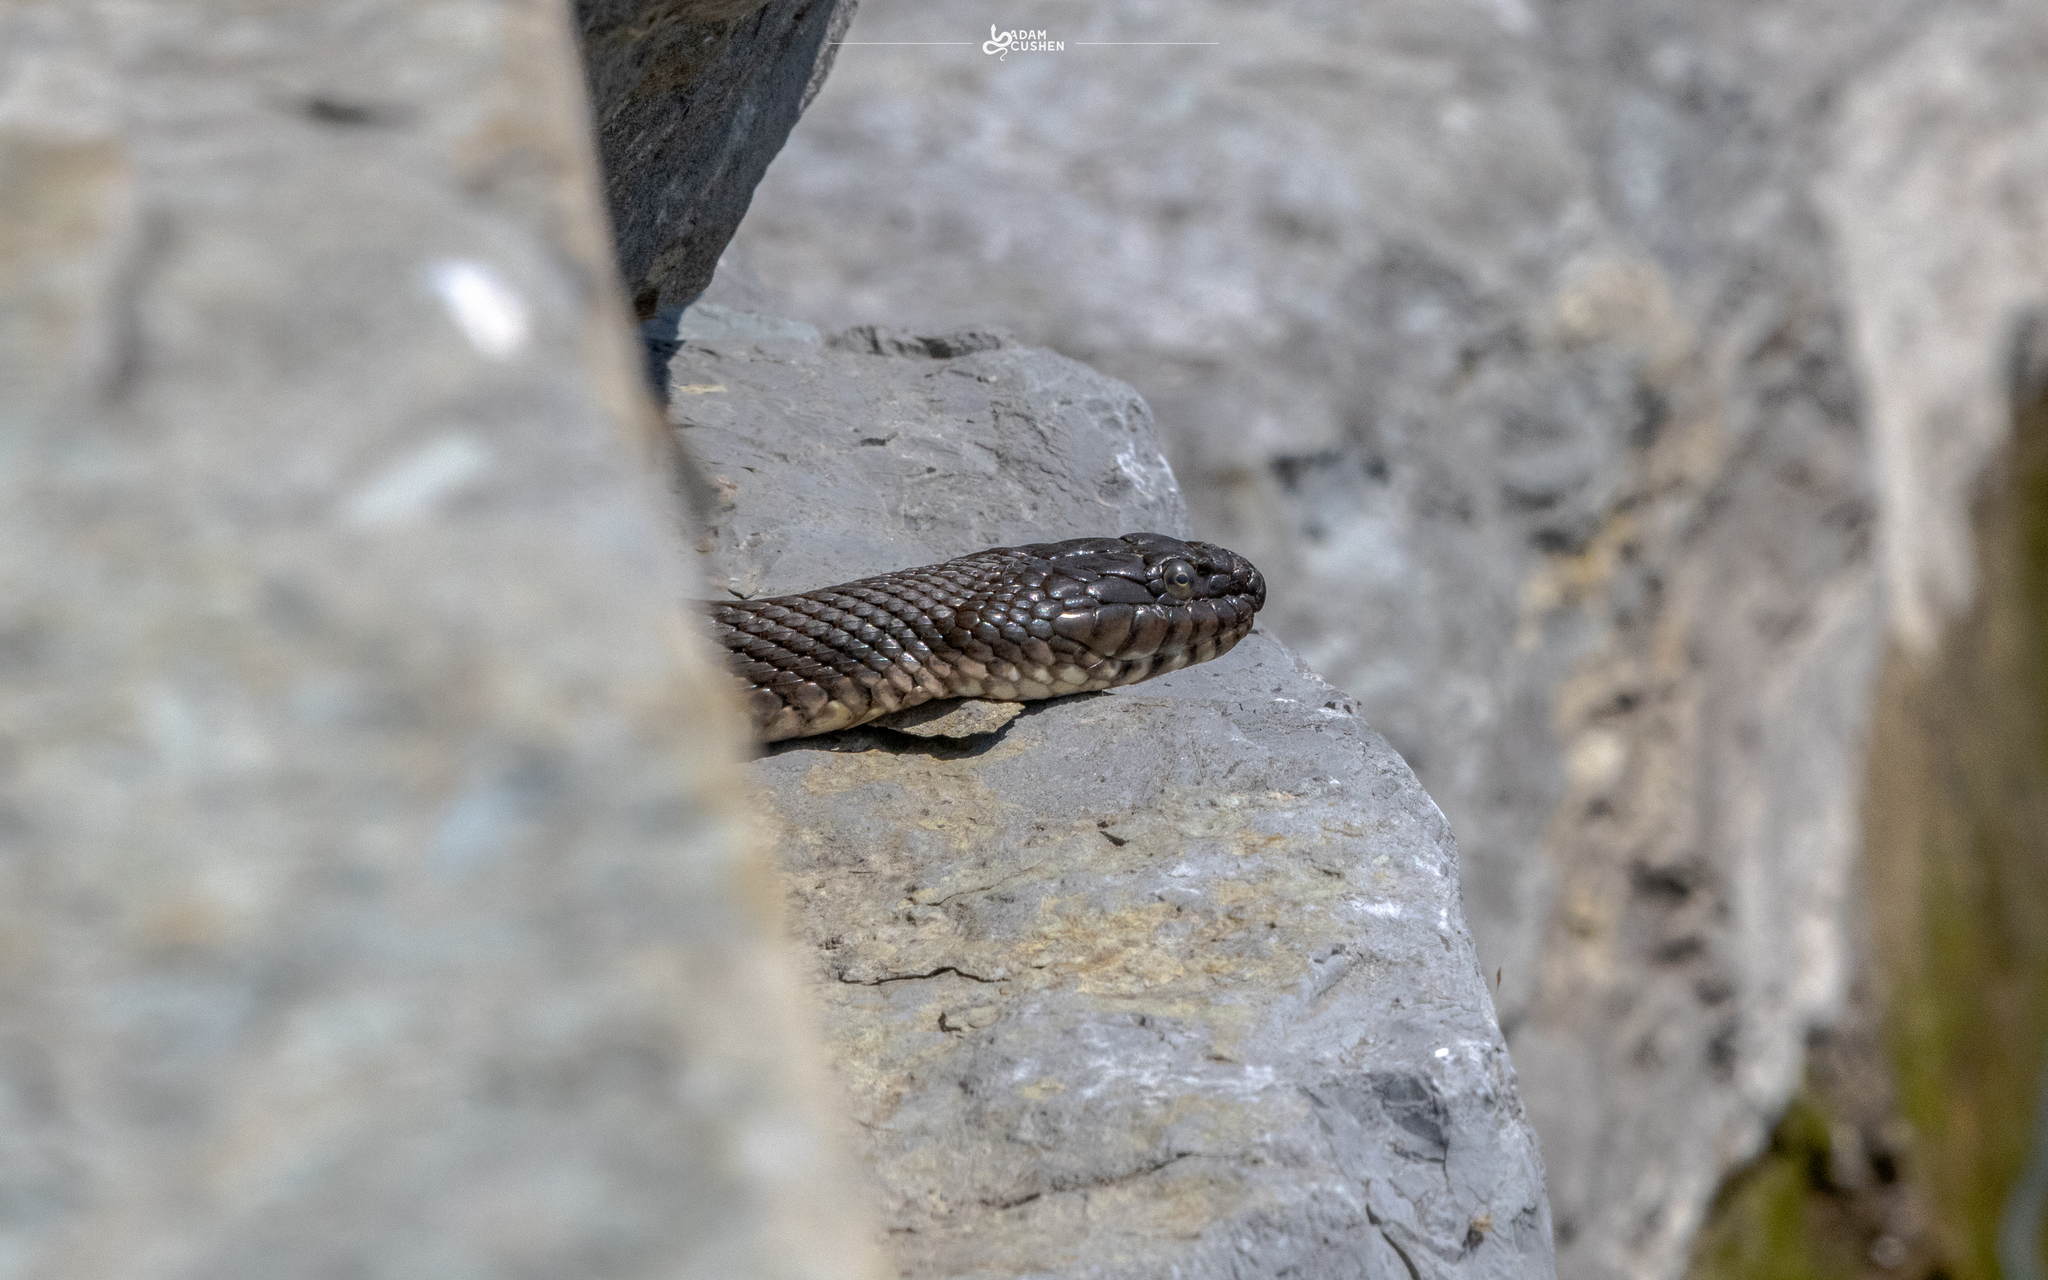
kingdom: Animalia
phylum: Chordata
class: Squamata
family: Colubridae
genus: Nerodia
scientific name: Nerodia sipedon
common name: Northern water snake
